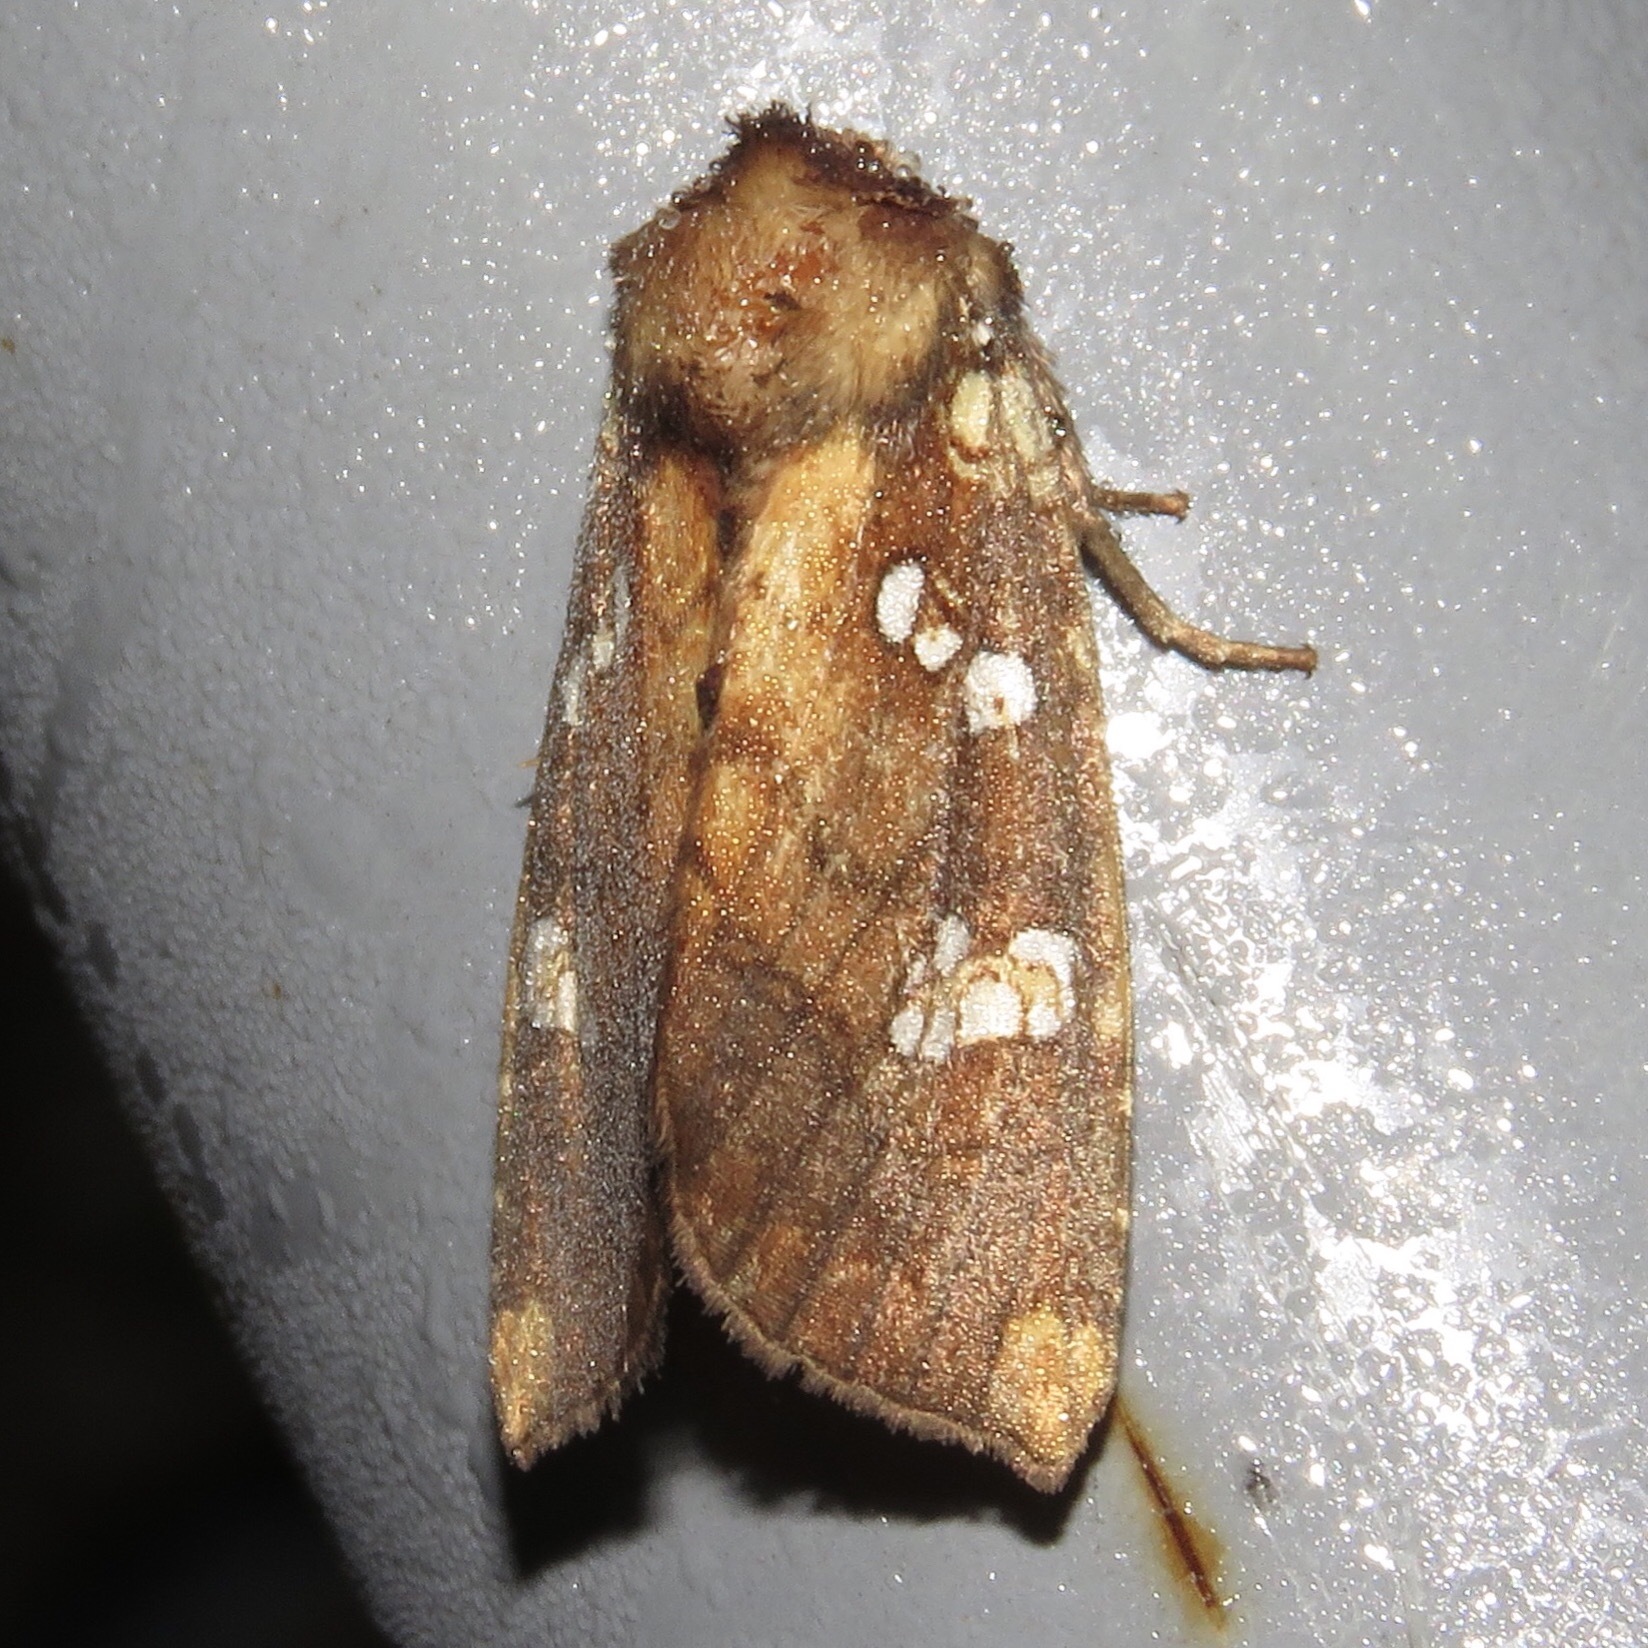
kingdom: Animalia
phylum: Arthropoda
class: Insecta
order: Lepidoptera
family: Noctuidae
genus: Papaipema
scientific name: Papaipema insulidens
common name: Ragwort stem borer moth
